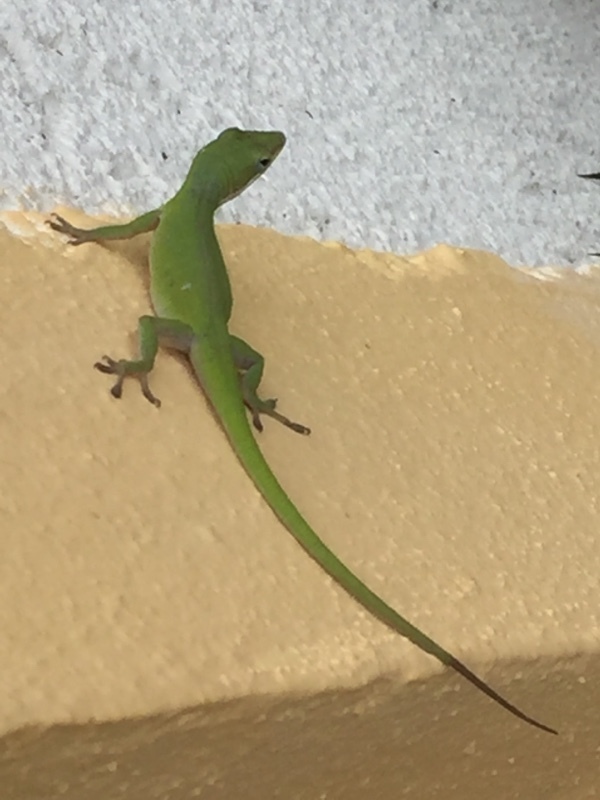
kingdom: Animalia
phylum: Chordata
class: Squamata
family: Dactyloidae
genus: Anolis
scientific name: Anolis porcatus
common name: Cuban green anole
